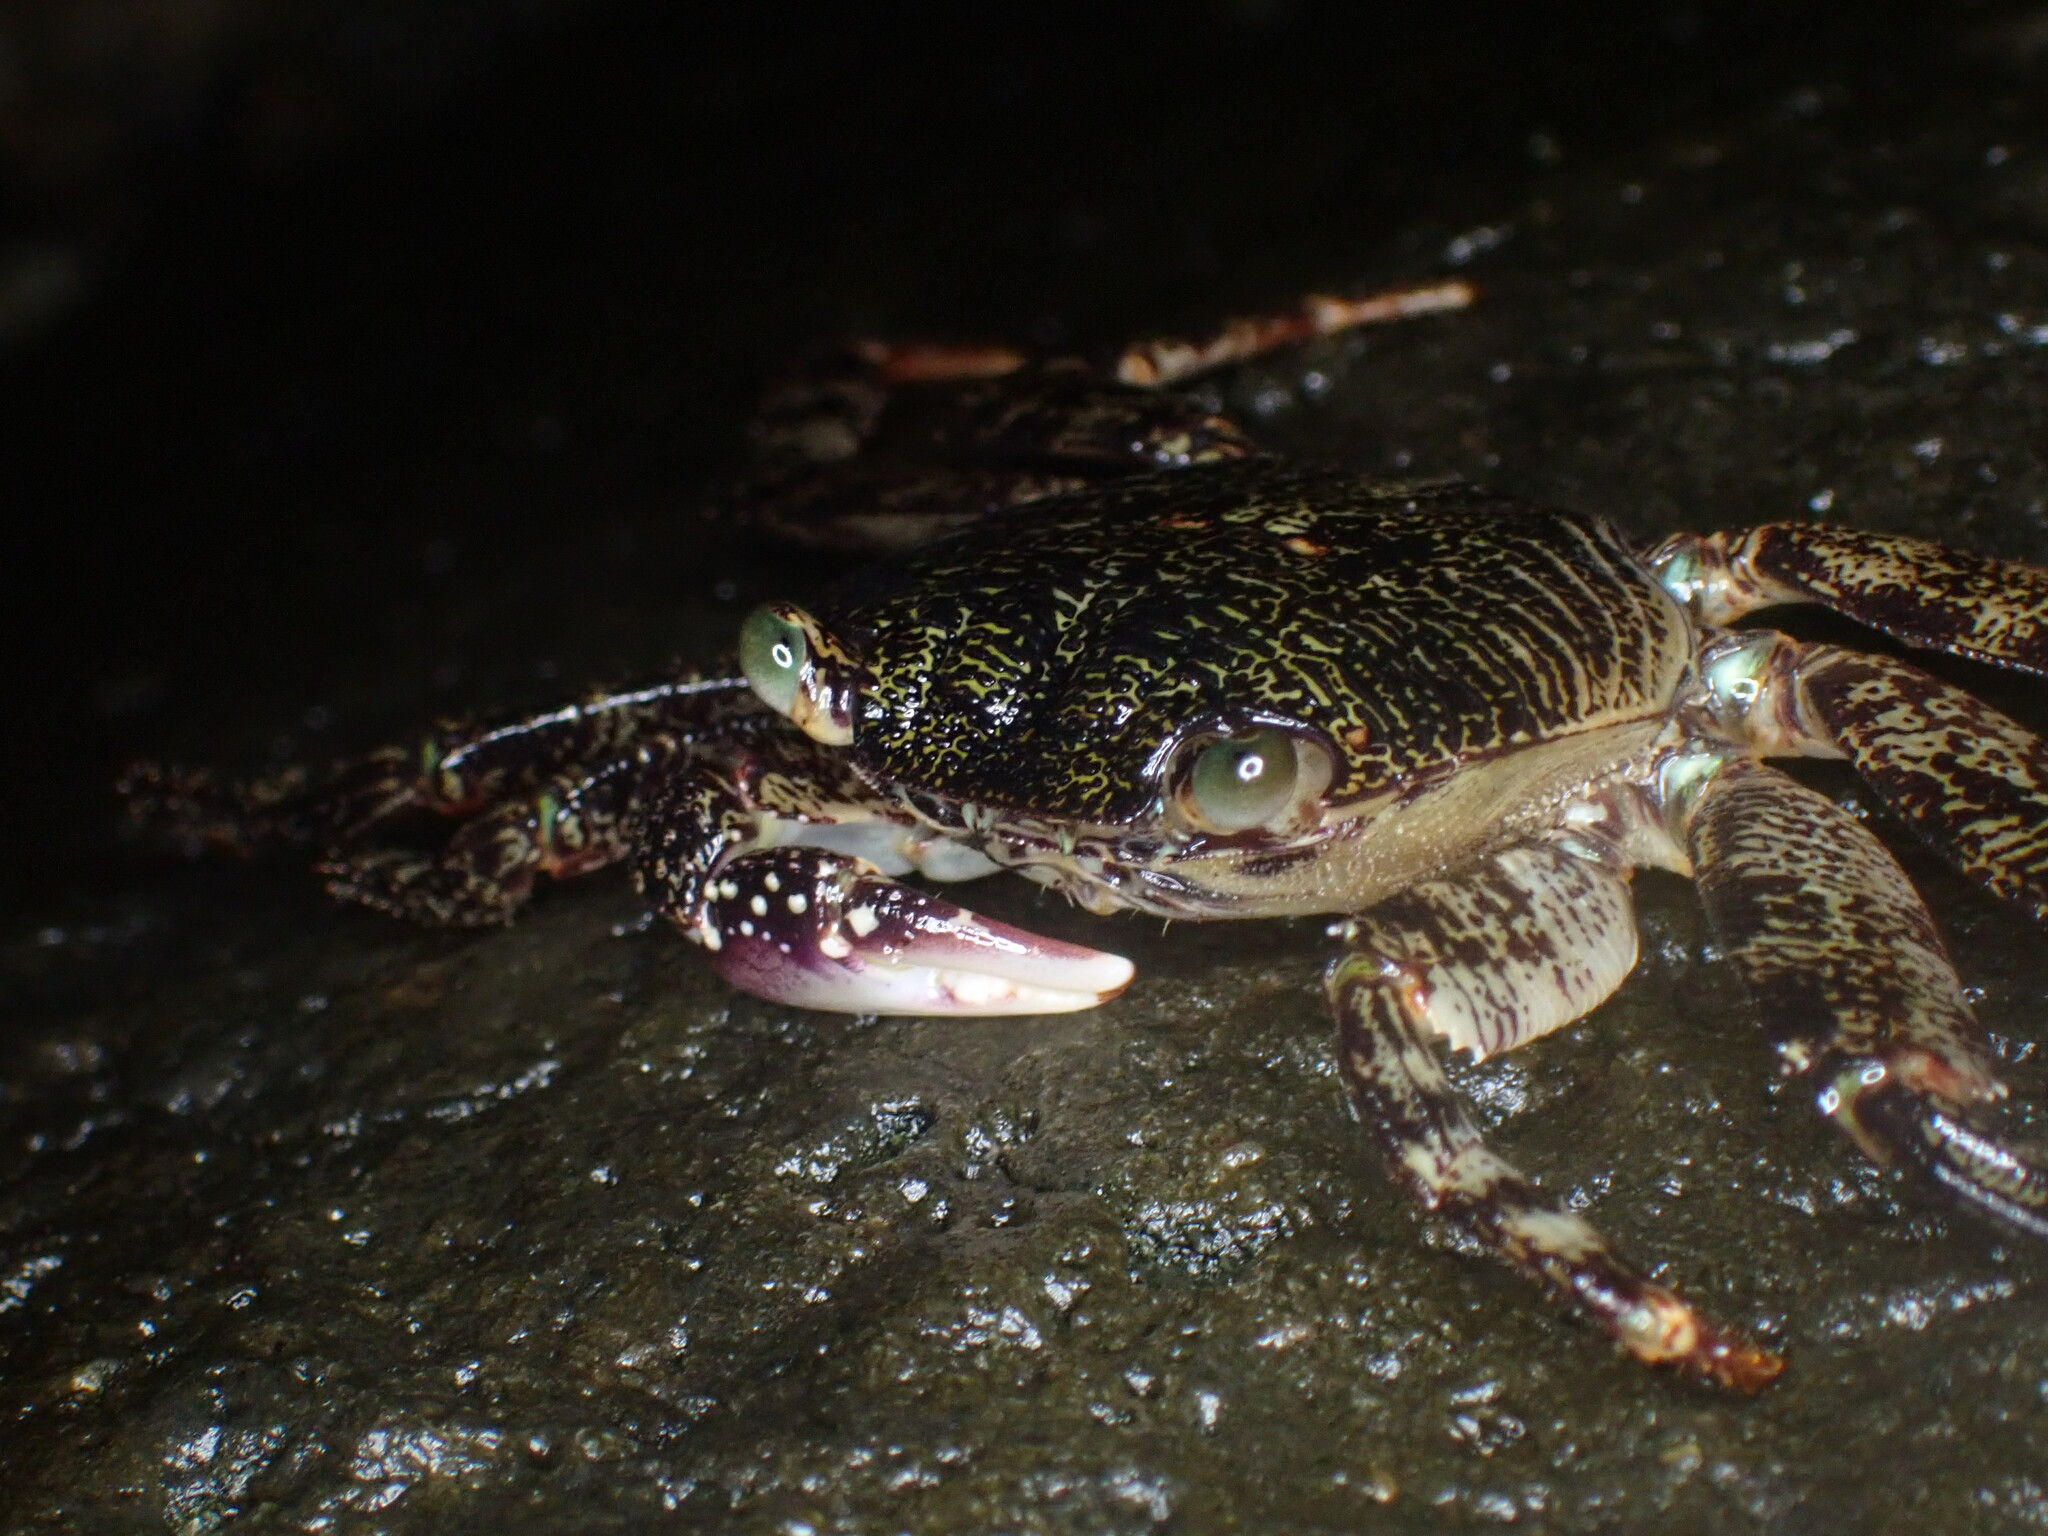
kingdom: Animalia
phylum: Arthropoda
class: Malacostraca
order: Decapoda
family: Grapsidae
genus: Leptograpsus
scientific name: Leptograpsus variegatus
